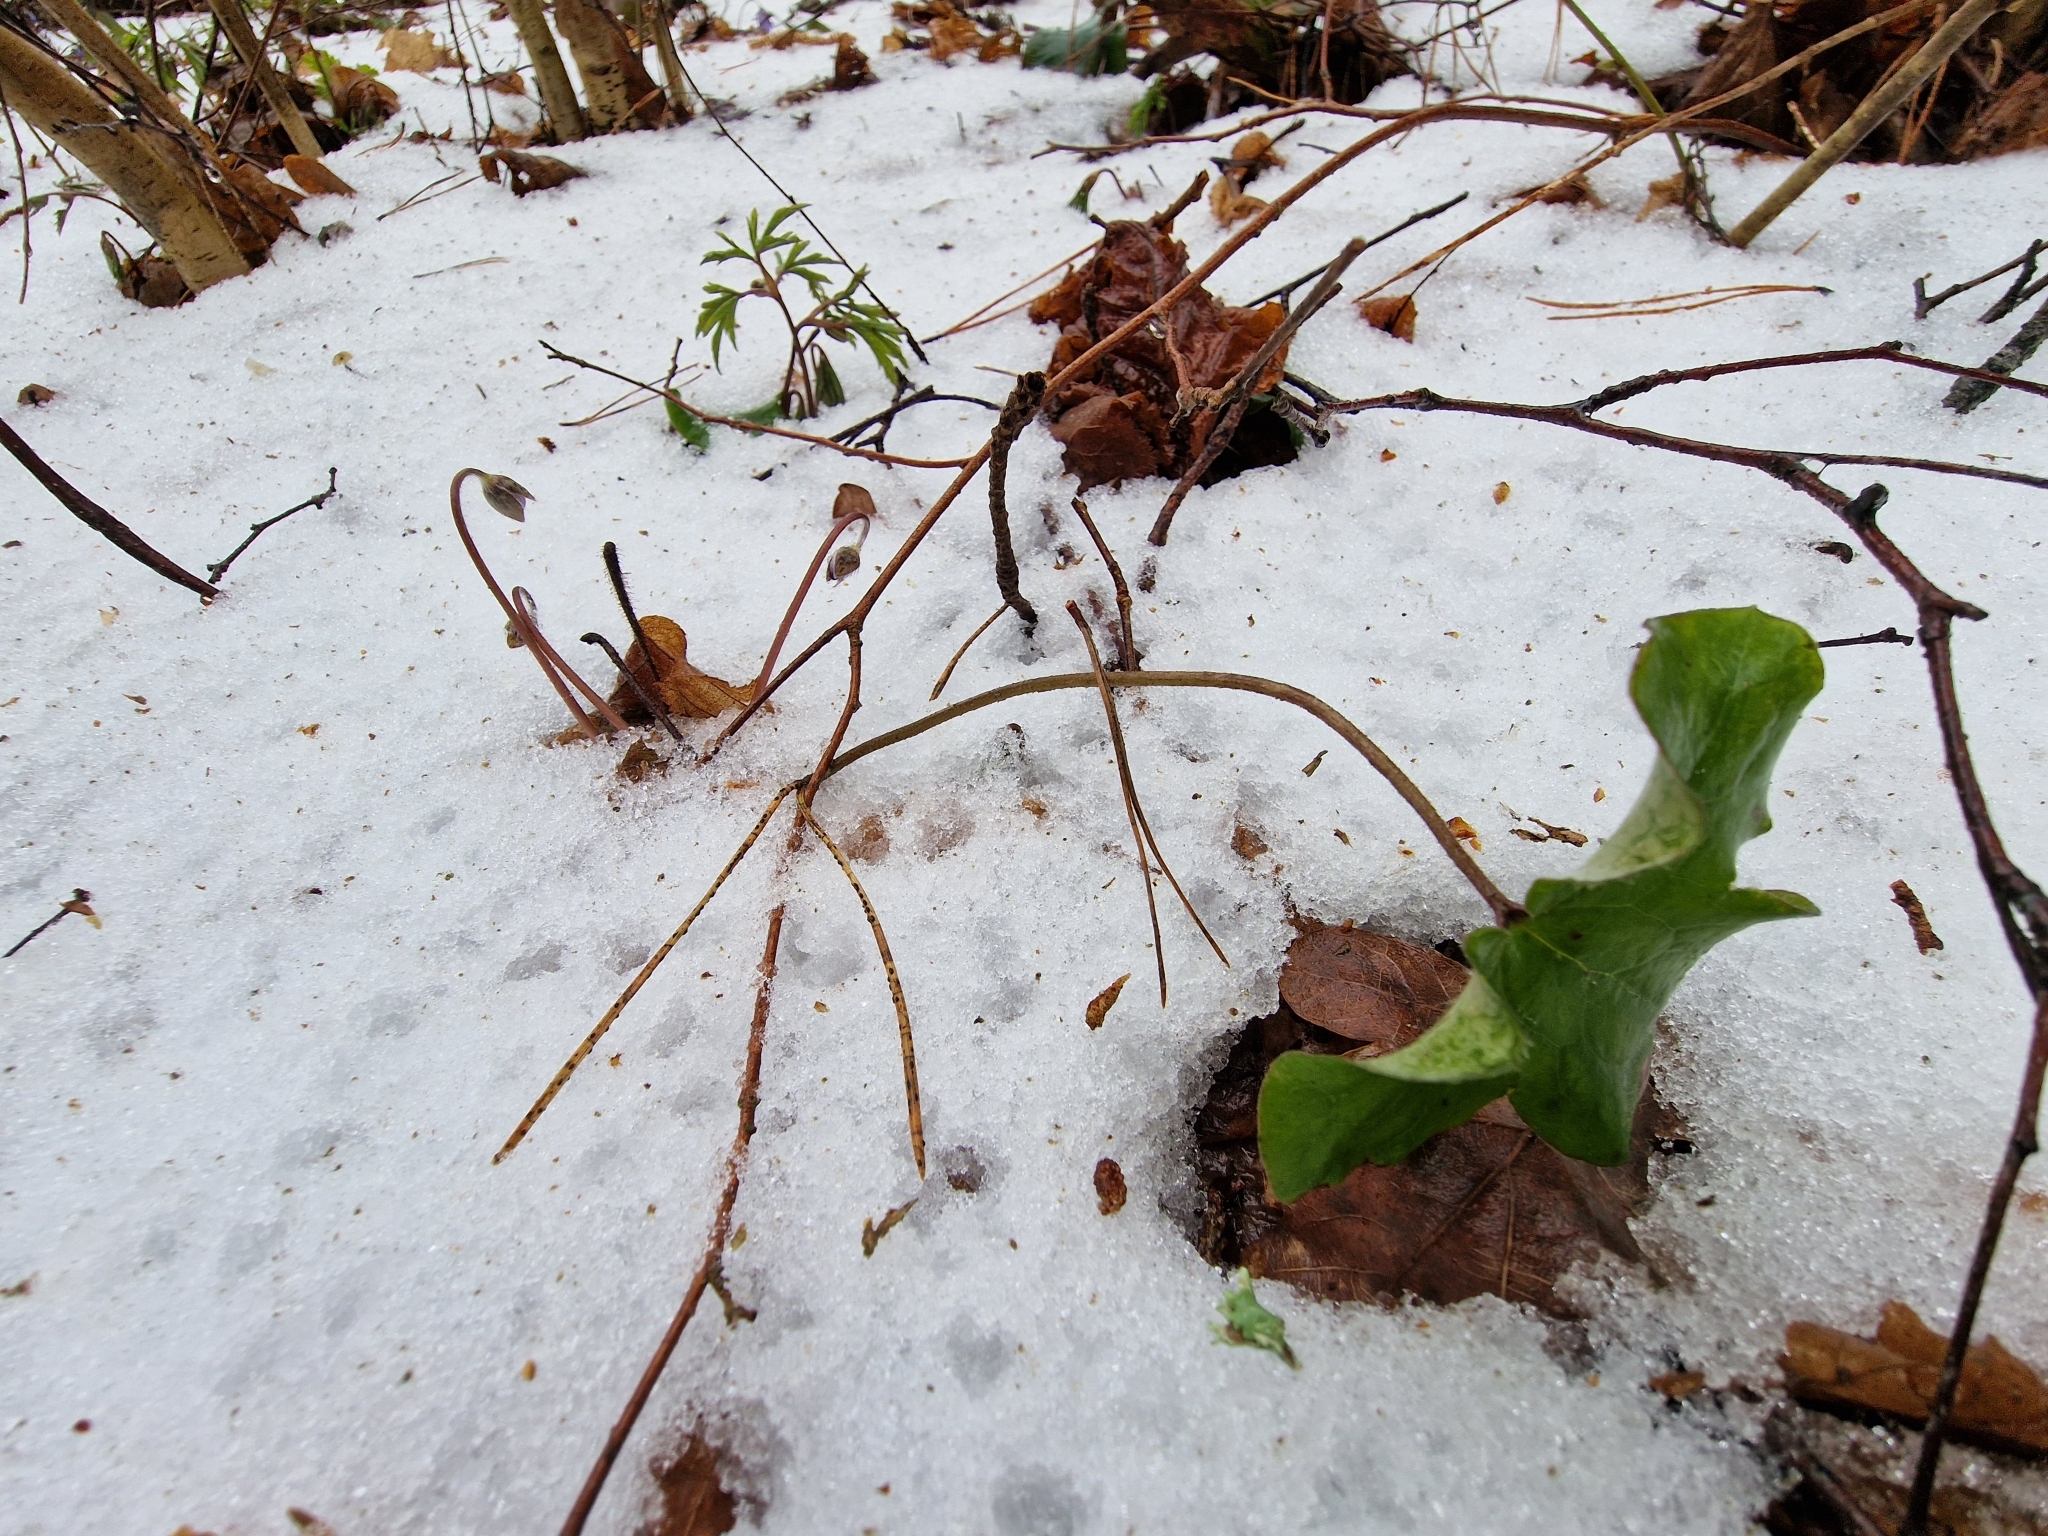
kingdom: Plantae
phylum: Tracheophyta
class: Magnoliopsida
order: Ranunculales
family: Ranunculaceae
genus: Hepatica
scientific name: Hepatica nobilis
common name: Liverleaf
